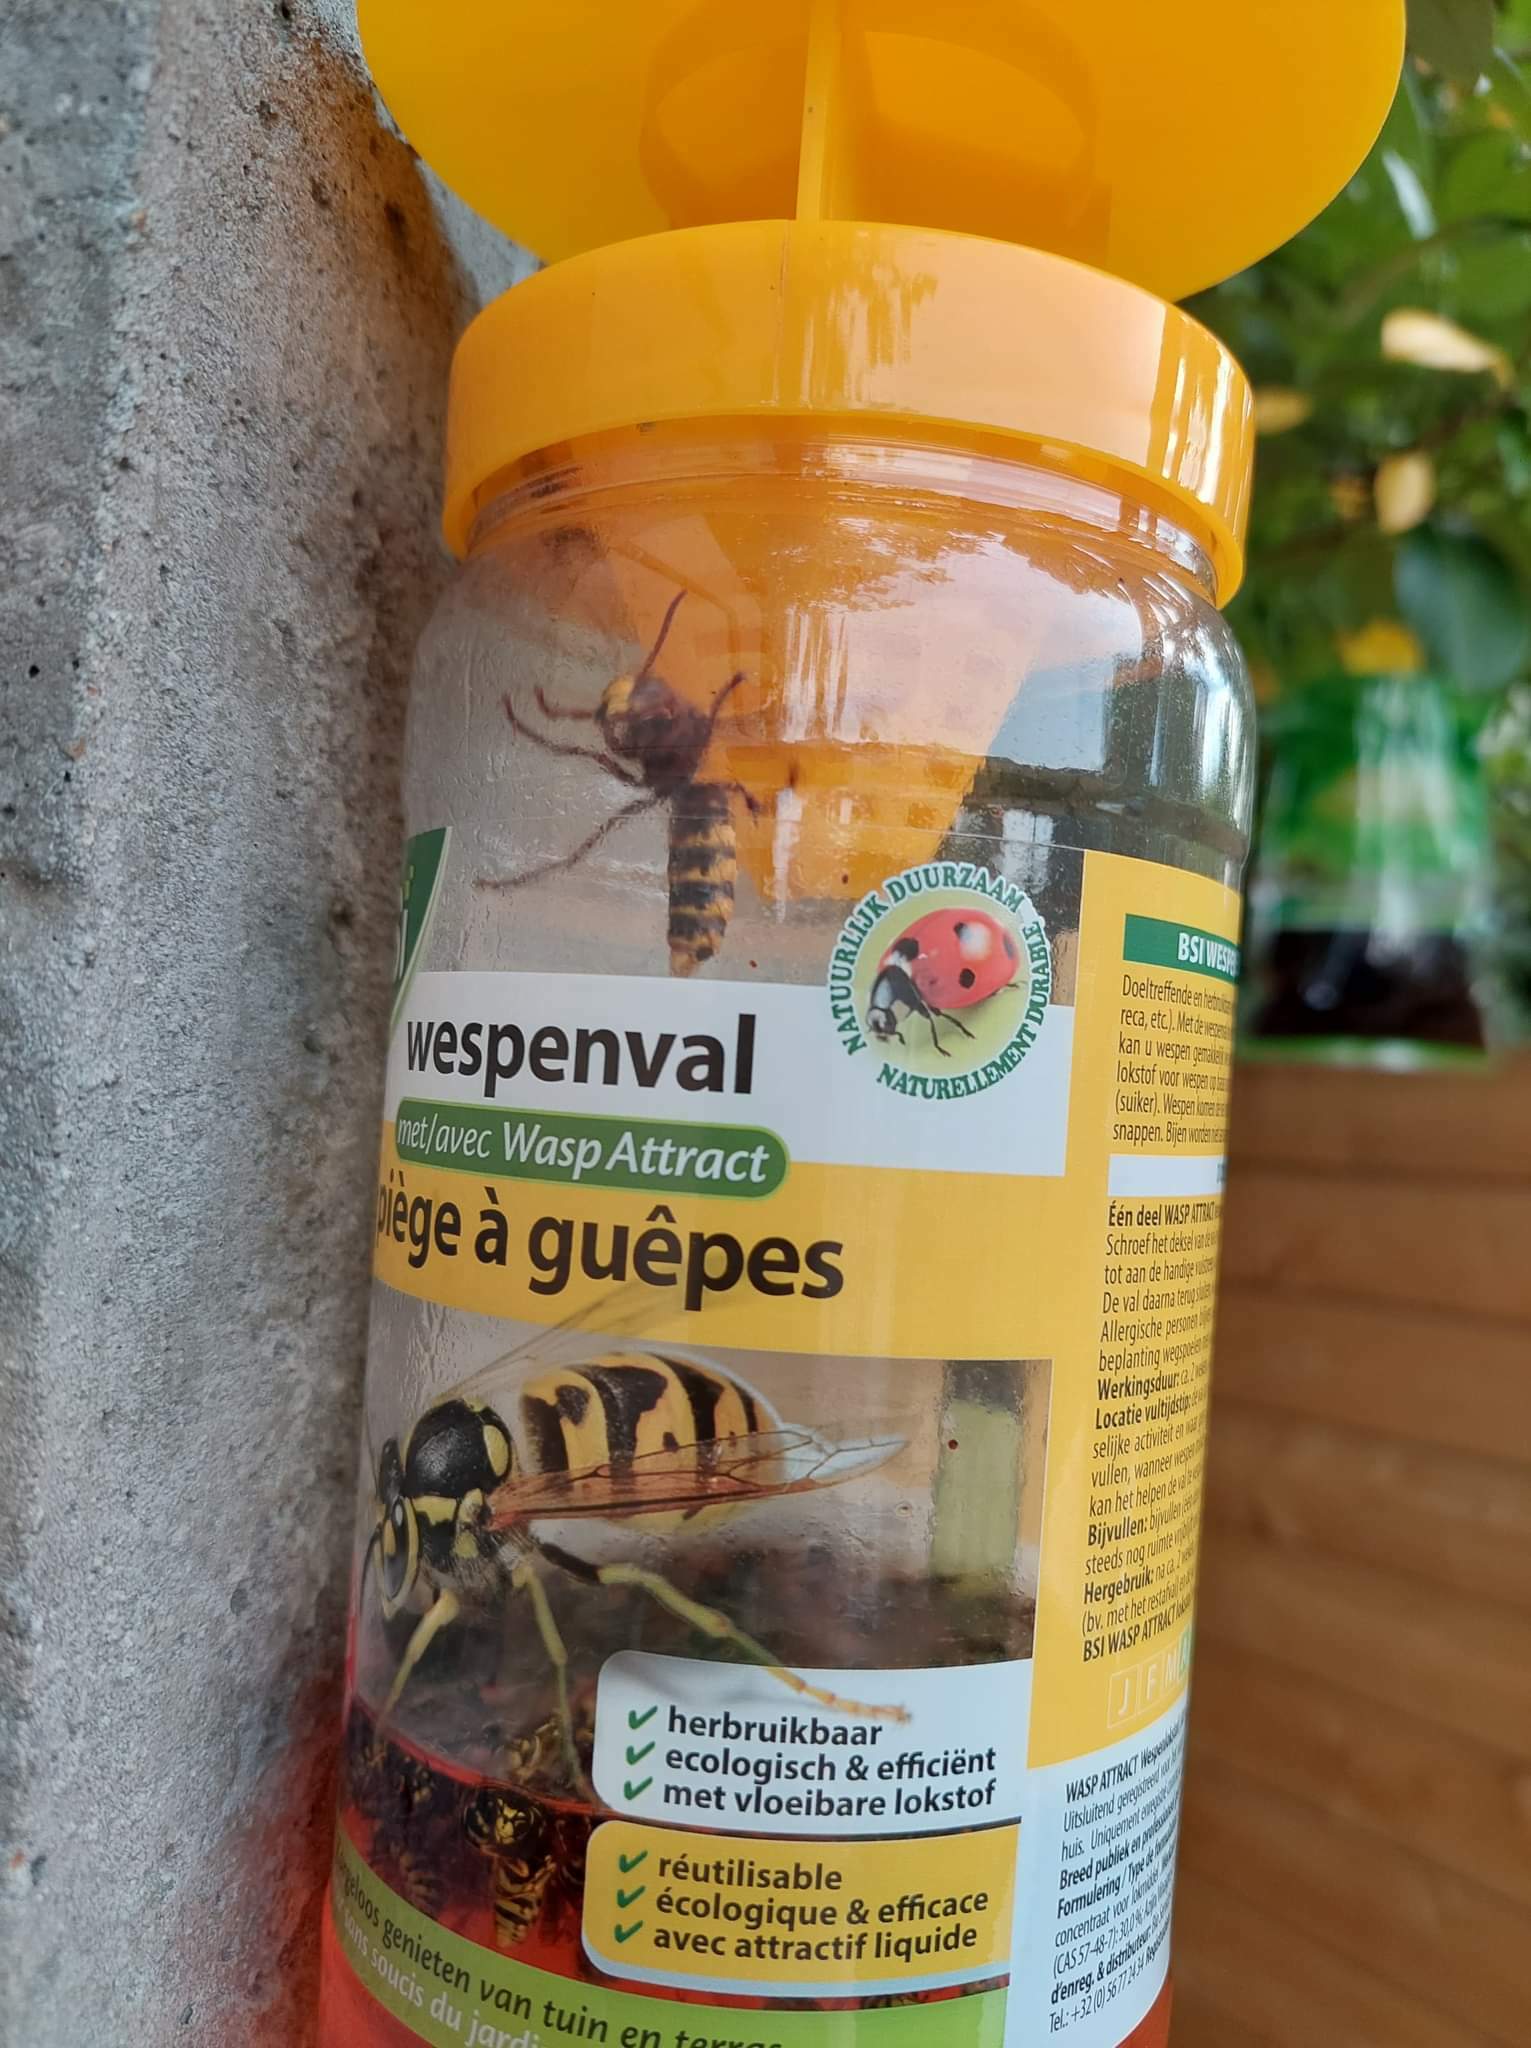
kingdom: Animalia
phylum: Arthropoda
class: Insecta
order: Hymenoptera
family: Vespidae
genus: Vespa
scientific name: Vespa crabro
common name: Hornet
